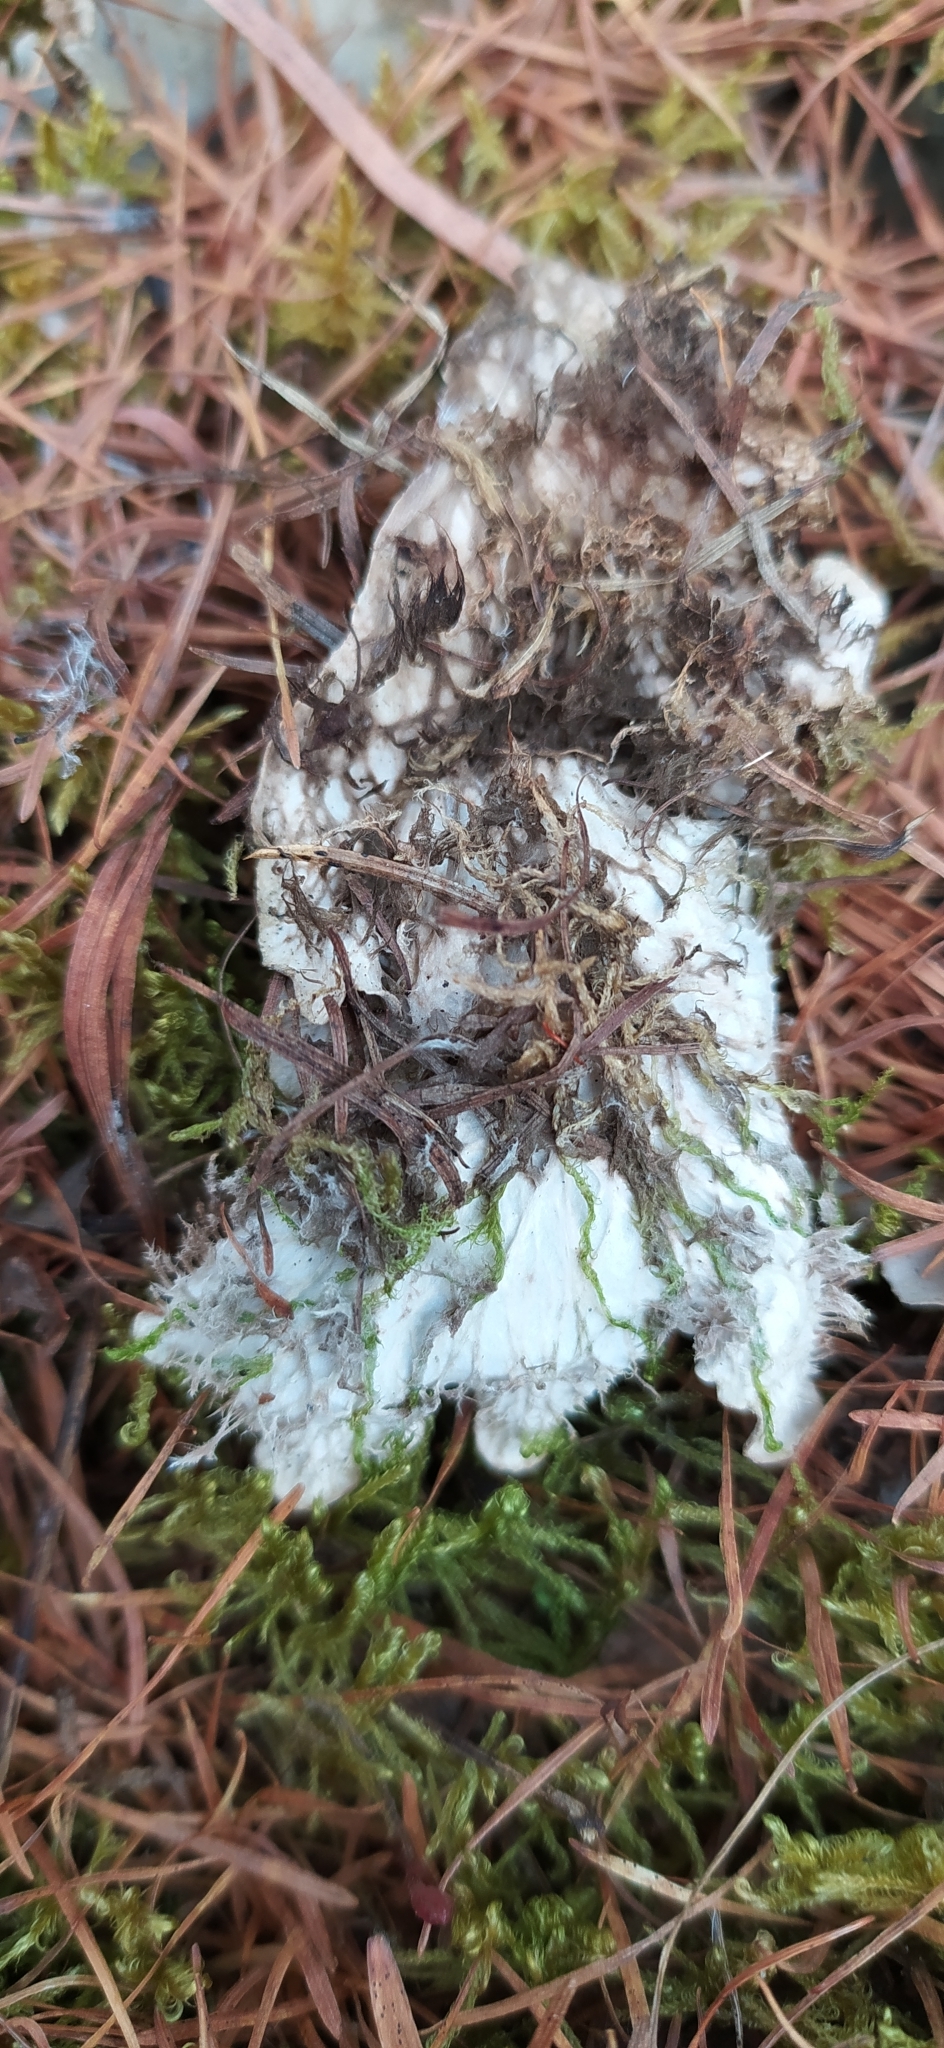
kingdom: Fungi
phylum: Ascomycota
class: Lecanoromycetes
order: Peltigerales
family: Peltigeraceae
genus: Peltigera
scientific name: Peltigera canina
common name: Dog pelt lichen
